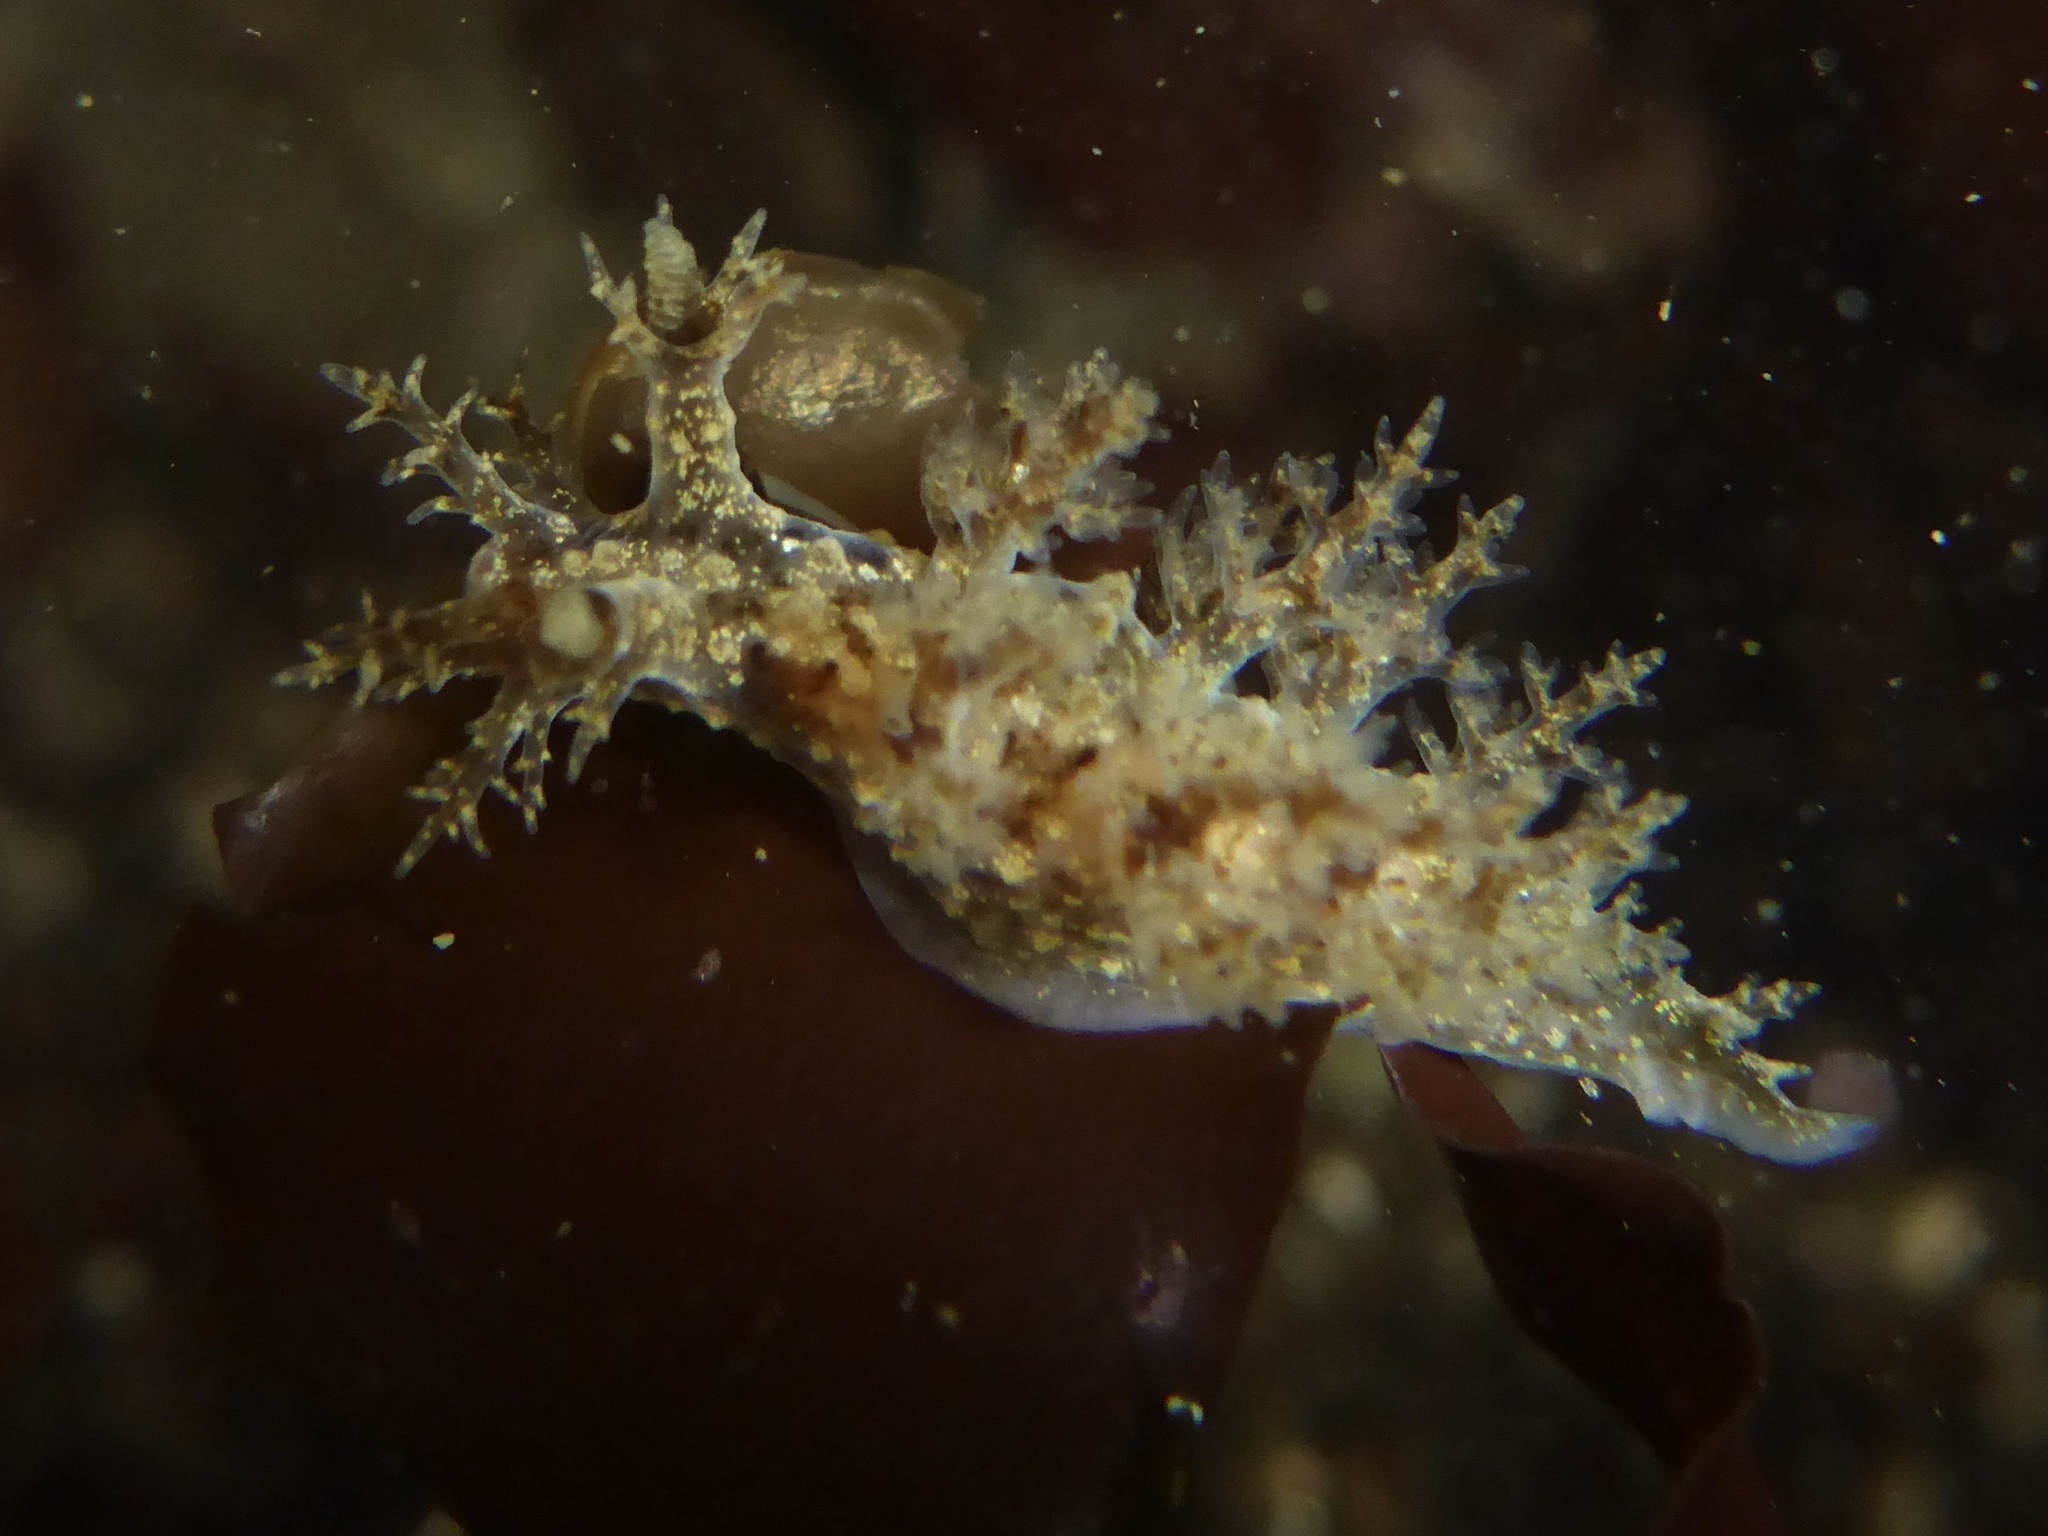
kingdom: Animalia
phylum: Mollusca
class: Gastropoda
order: Nudibranchia
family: Dendronotidae
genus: Dendronotus
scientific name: Dendronotus venustus
